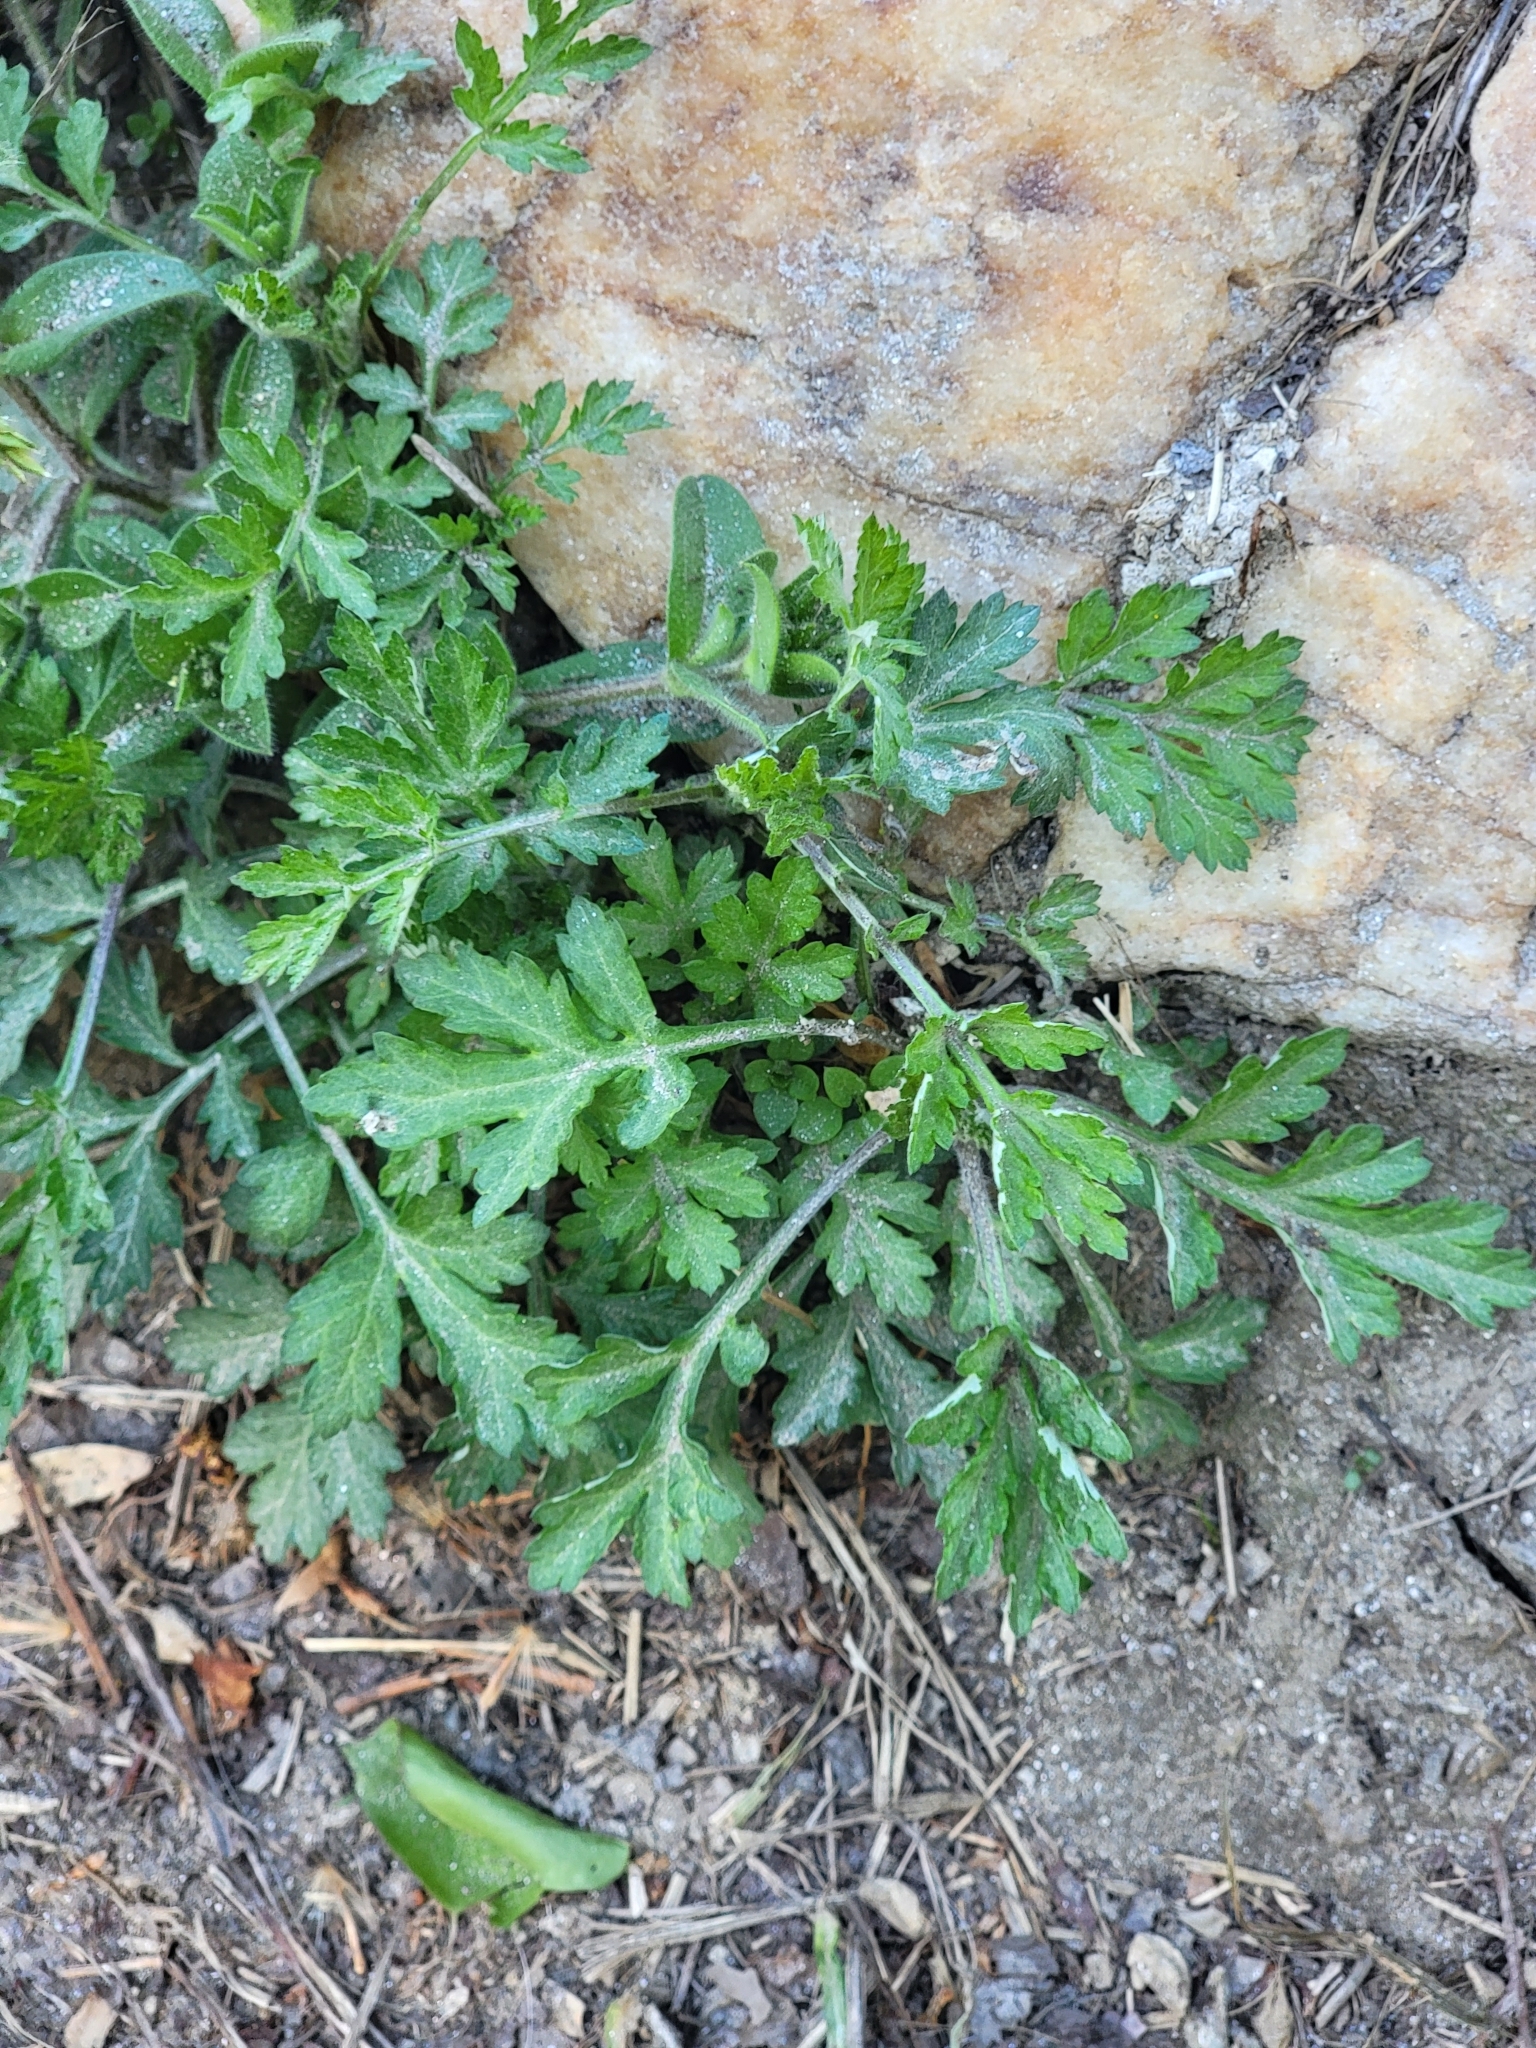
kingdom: Plantae
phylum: Tracheophyta
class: Magnoliopsida
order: Asterales
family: Asteraceae
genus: Artemisia
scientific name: Artemisia vulgaris
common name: Mugwort
